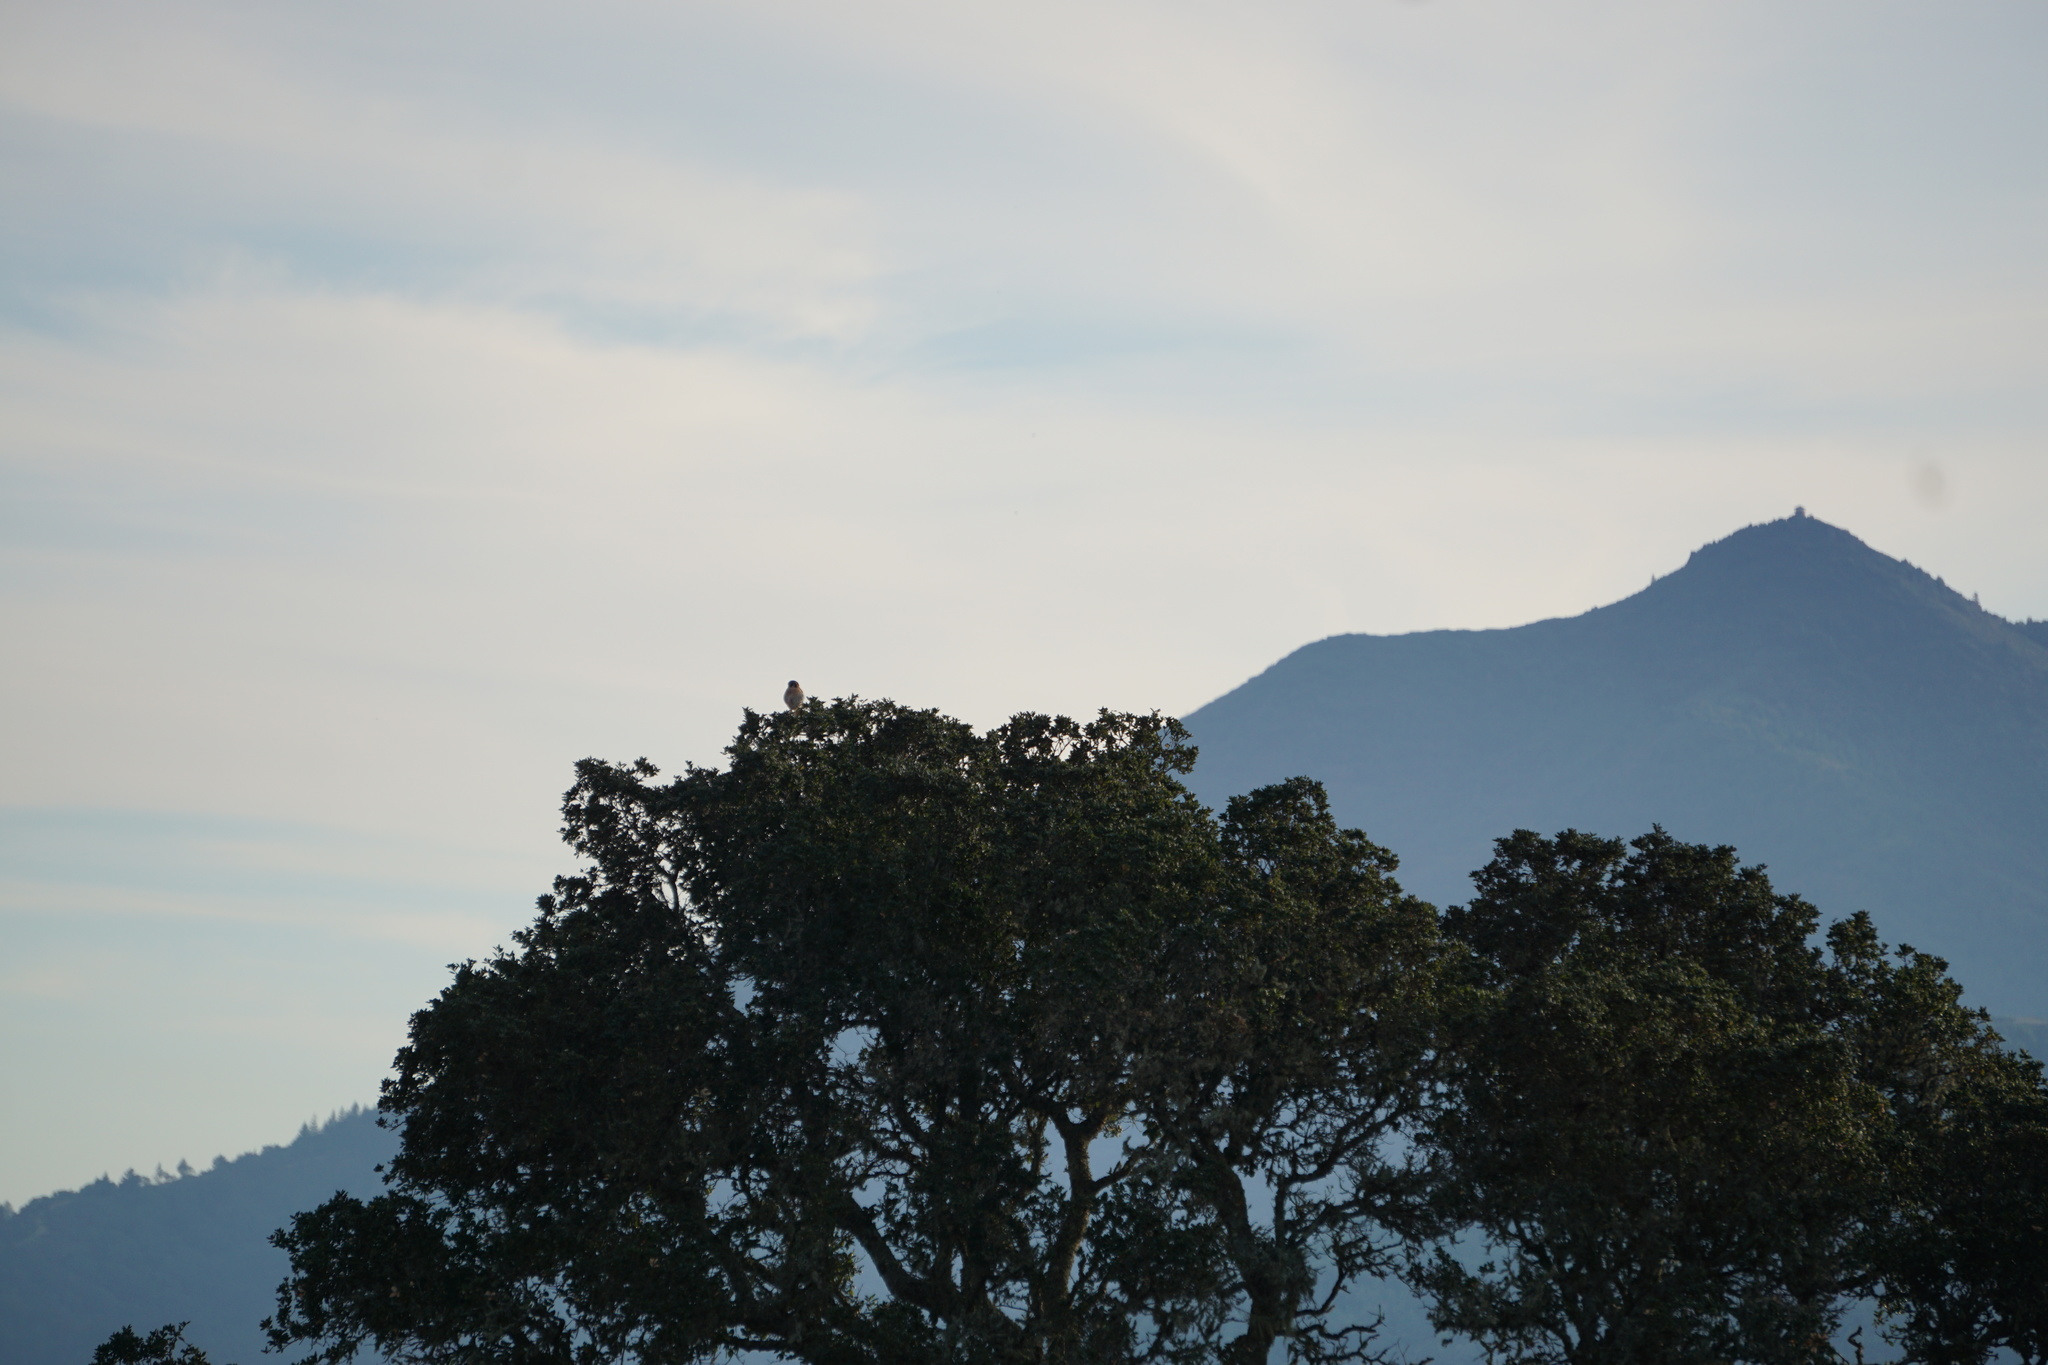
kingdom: Animalia
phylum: Chordata
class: Aves
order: Falconiformes
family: Falconidae
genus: Falco
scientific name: Falco sparverius
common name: American kestrel
